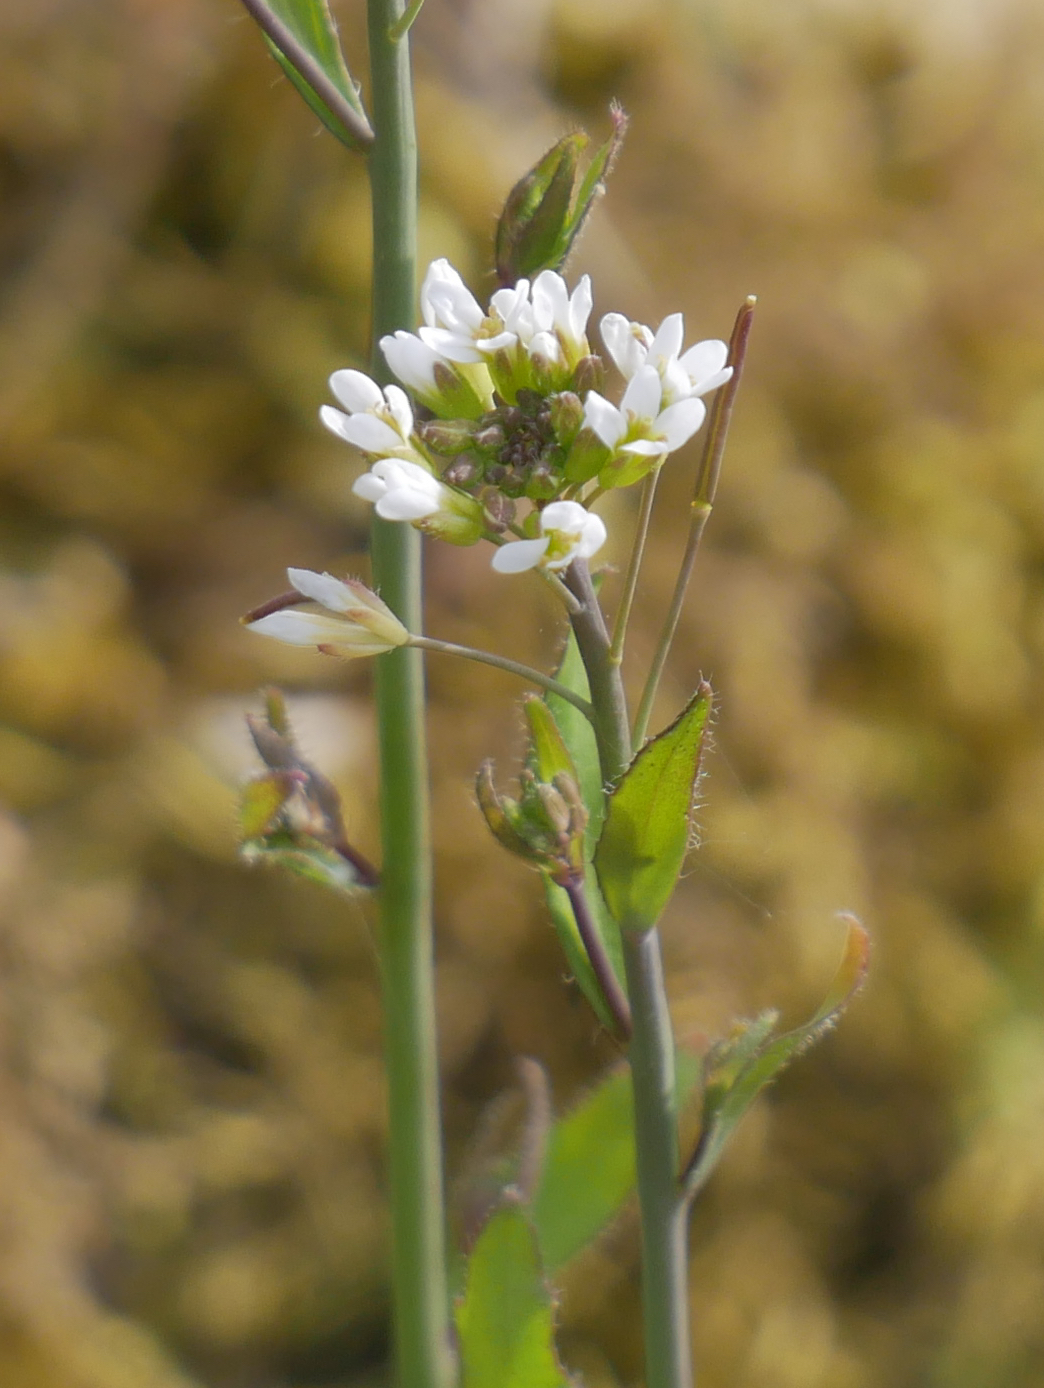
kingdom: Plantae
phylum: Tracheophyta
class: Magnoliopsida
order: Brassicales
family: Brassicaceae
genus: Arabidopsis
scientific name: Arabidopsis thaliana
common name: Thale cress
